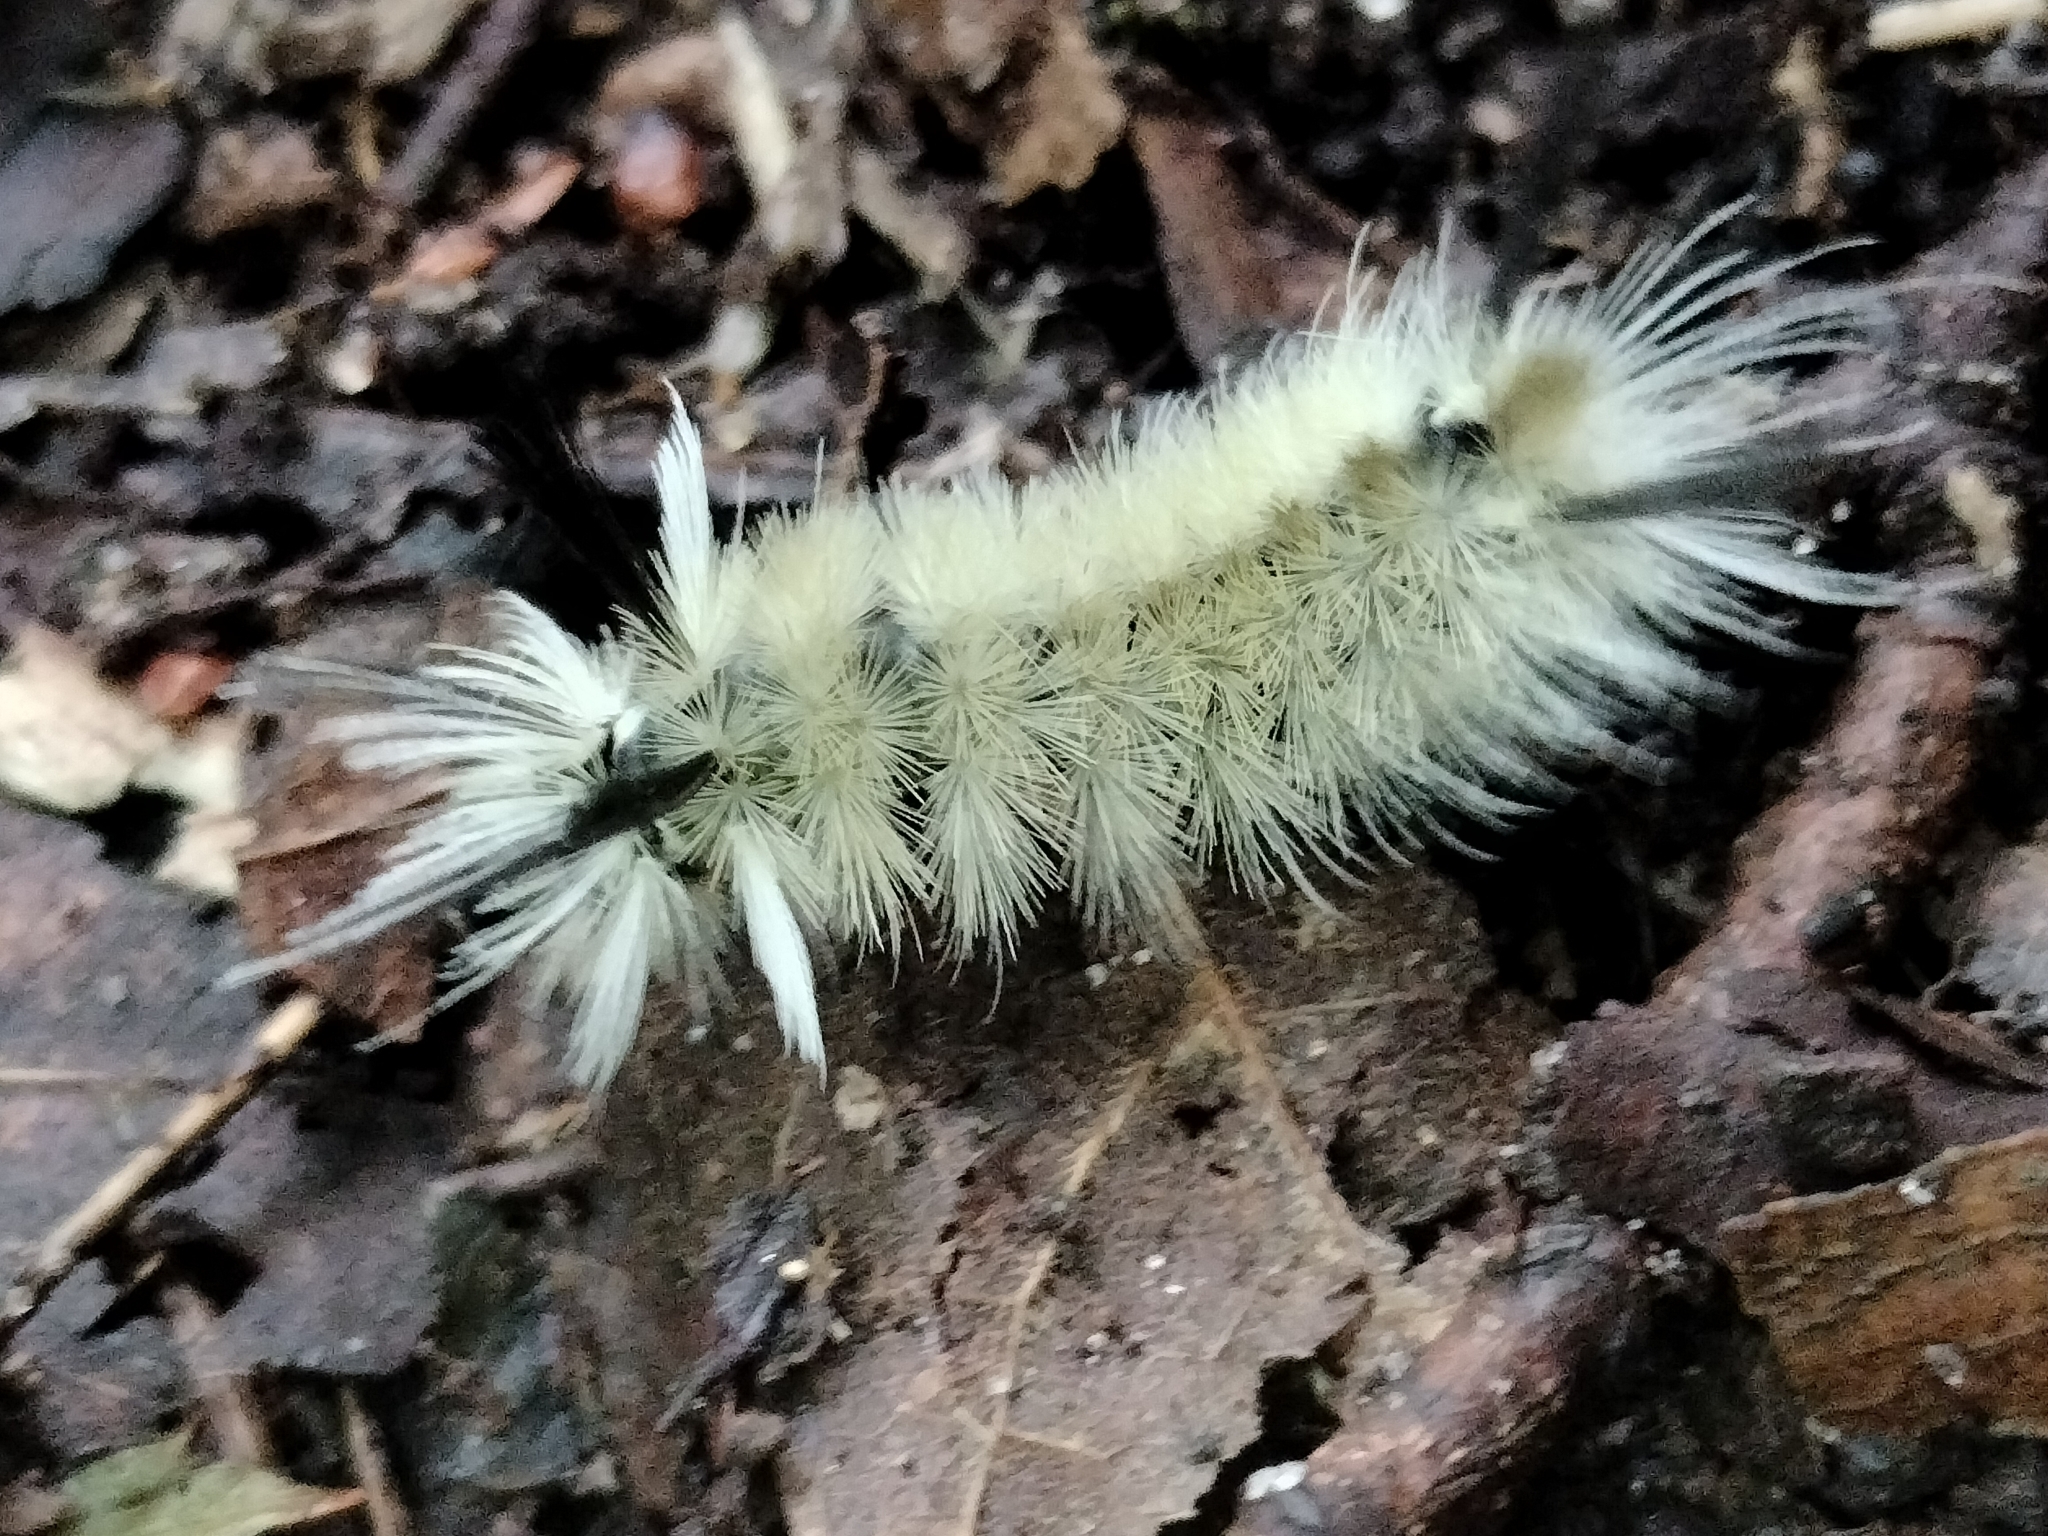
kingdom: Animalia
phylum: Arthropoda
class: Insecta
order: Lepidoptera
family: Erebidae
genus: Halysidota
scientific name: Halysidota tessellaris
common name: Banded tussock moth
